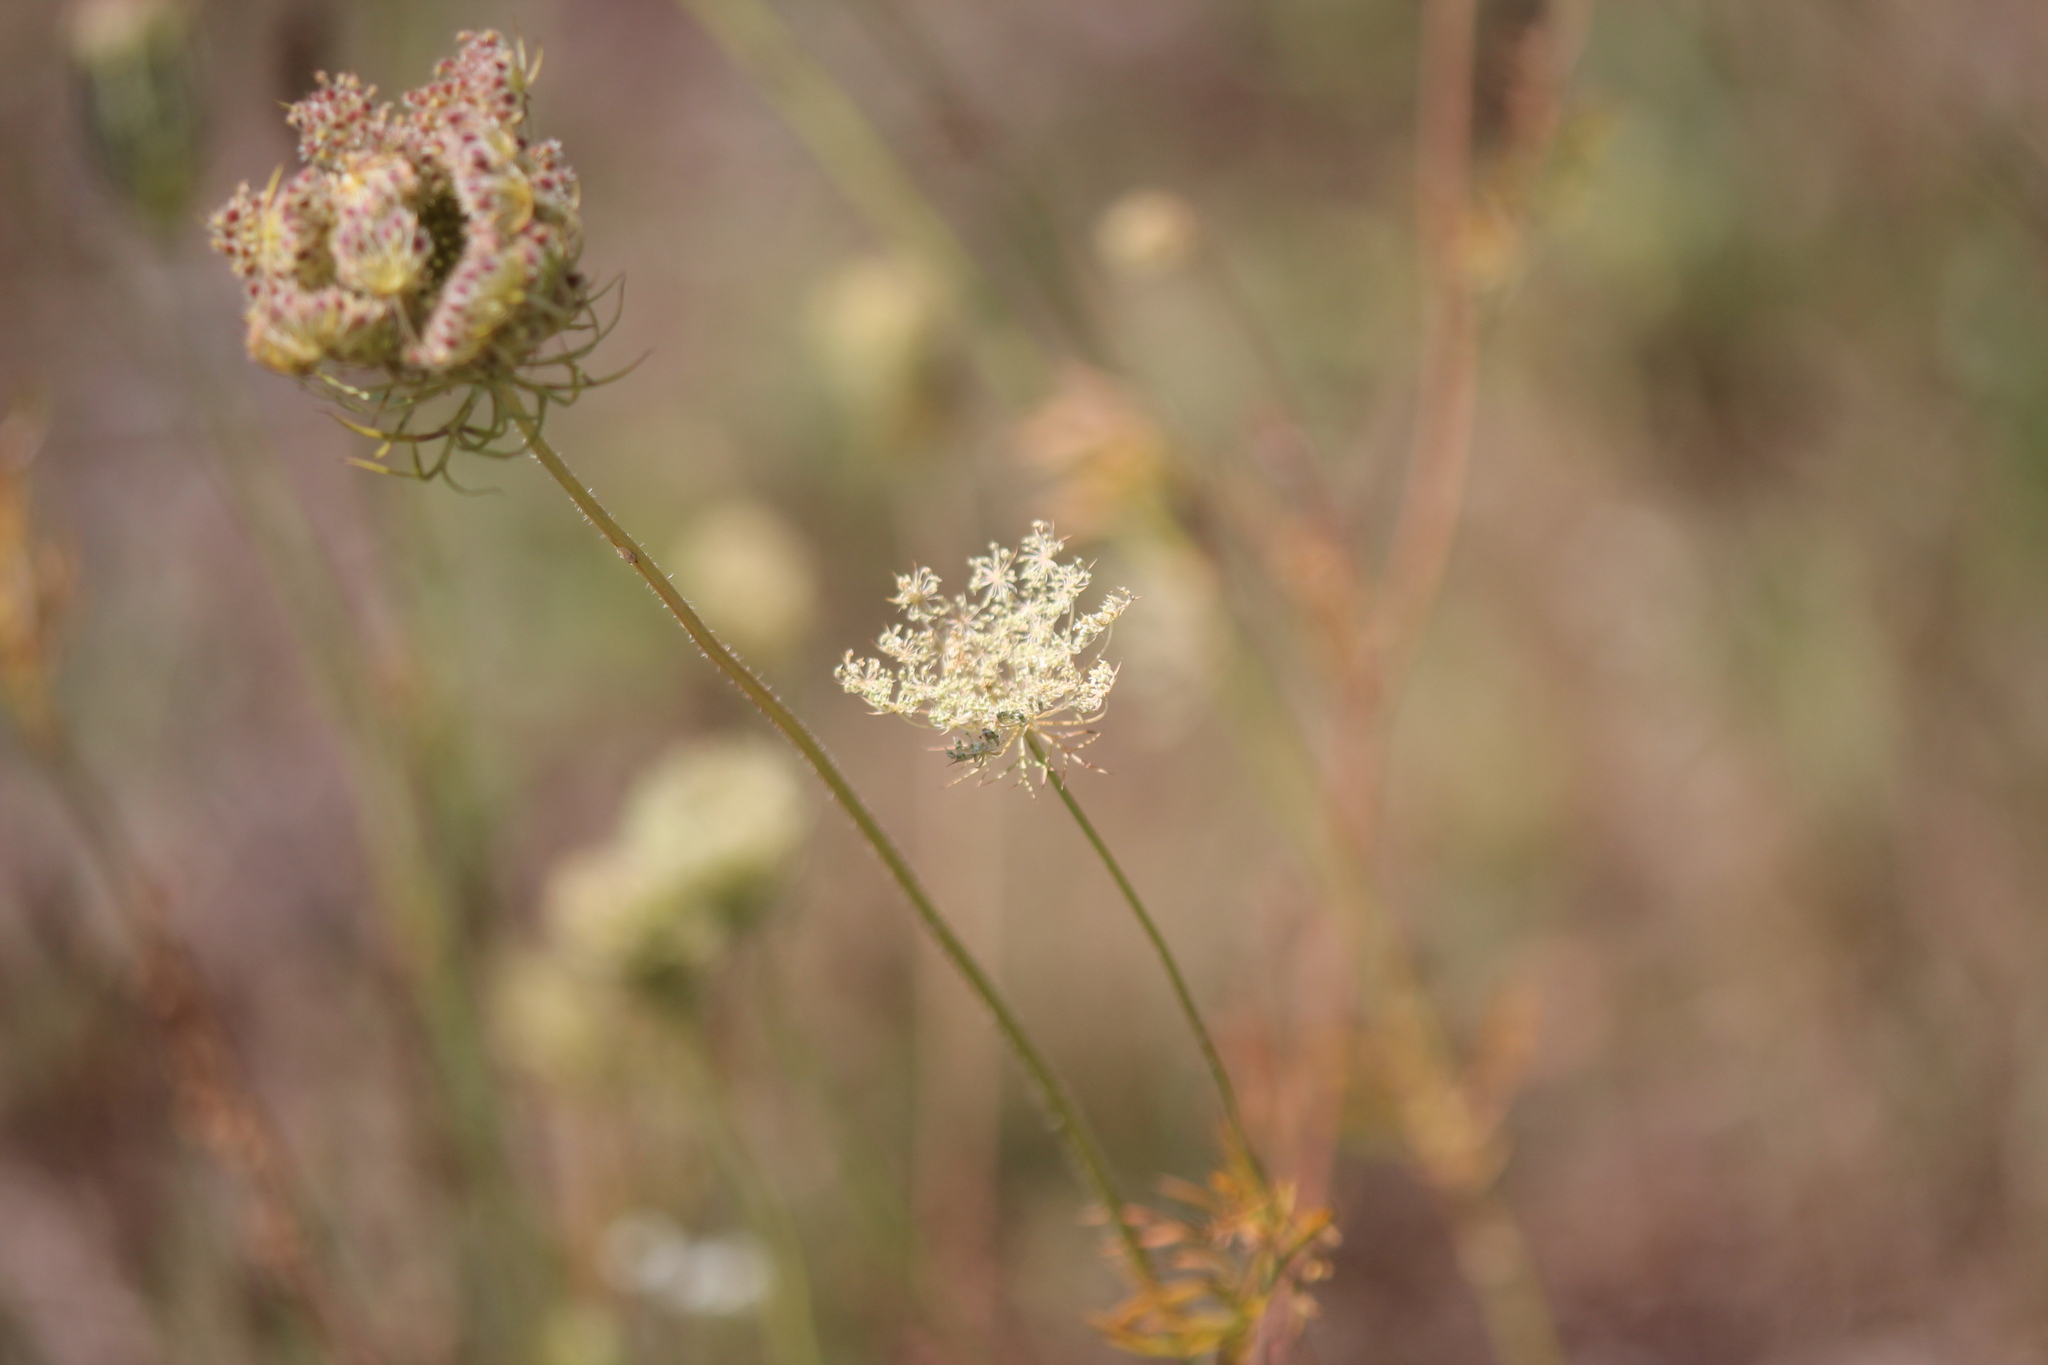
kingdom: Plantae
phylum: Tracheophyta
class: Magnoliopsida
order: Apiales
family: Apiaceae
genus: Daucus
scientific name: Daucus carota
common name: Wild carrot
